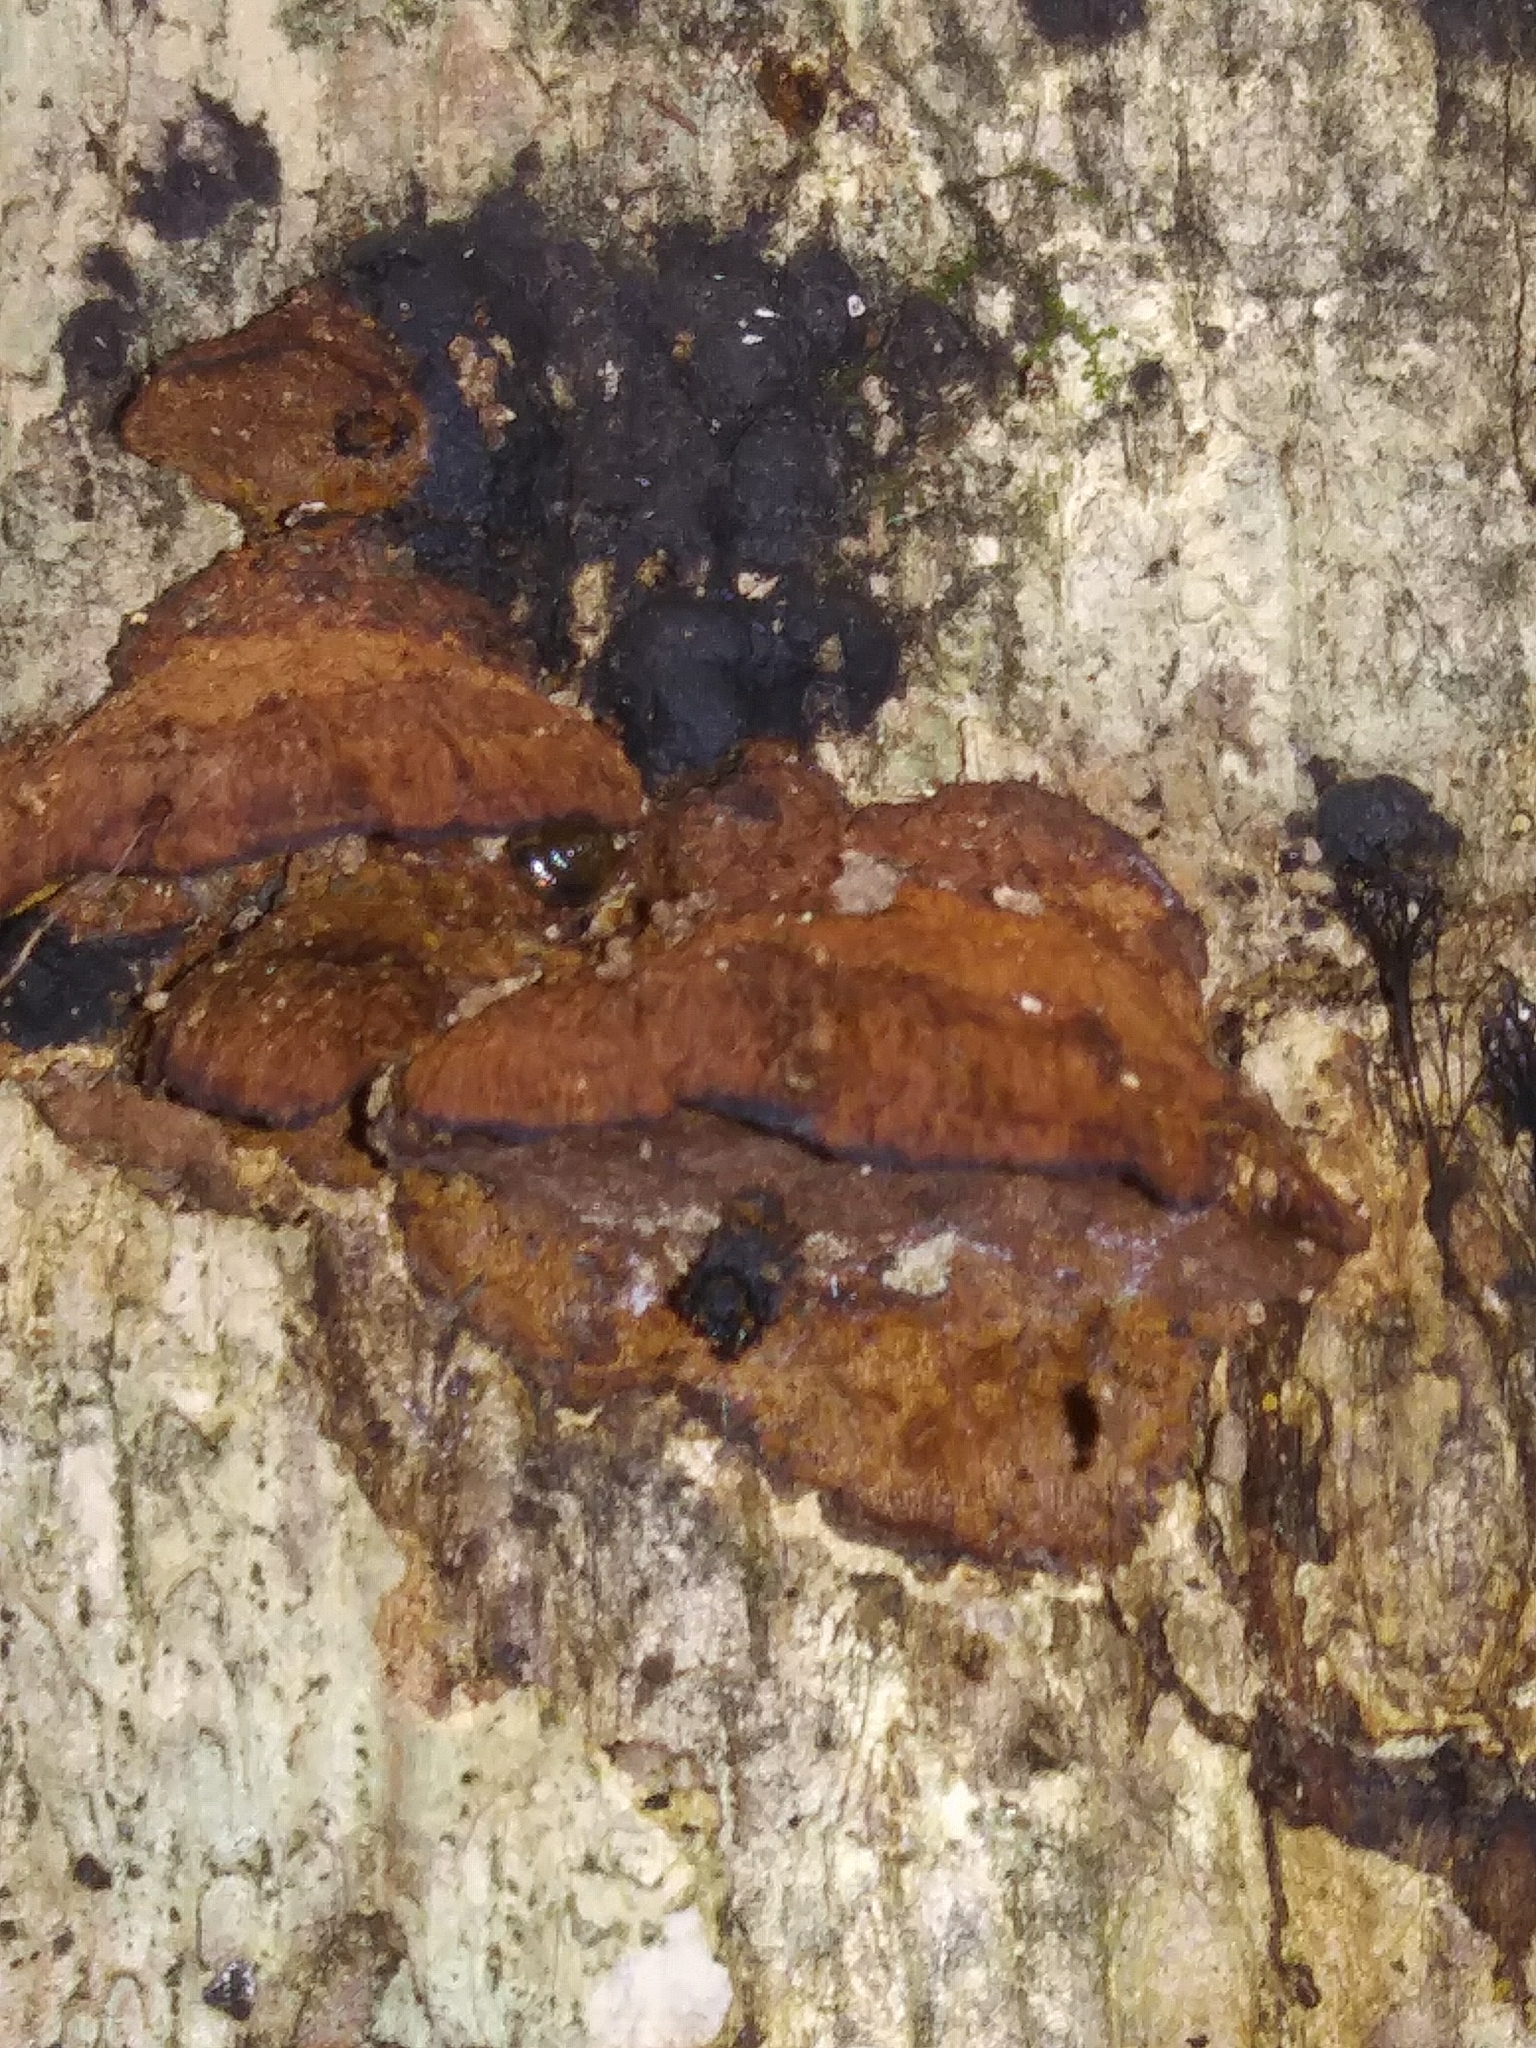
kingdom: Fungi
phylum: Basidiomycota
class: Agaricomycetes
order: Hymenochaetales
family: Hymenochaetaceae
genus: Phellinus
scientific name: Phellinus gilvus
